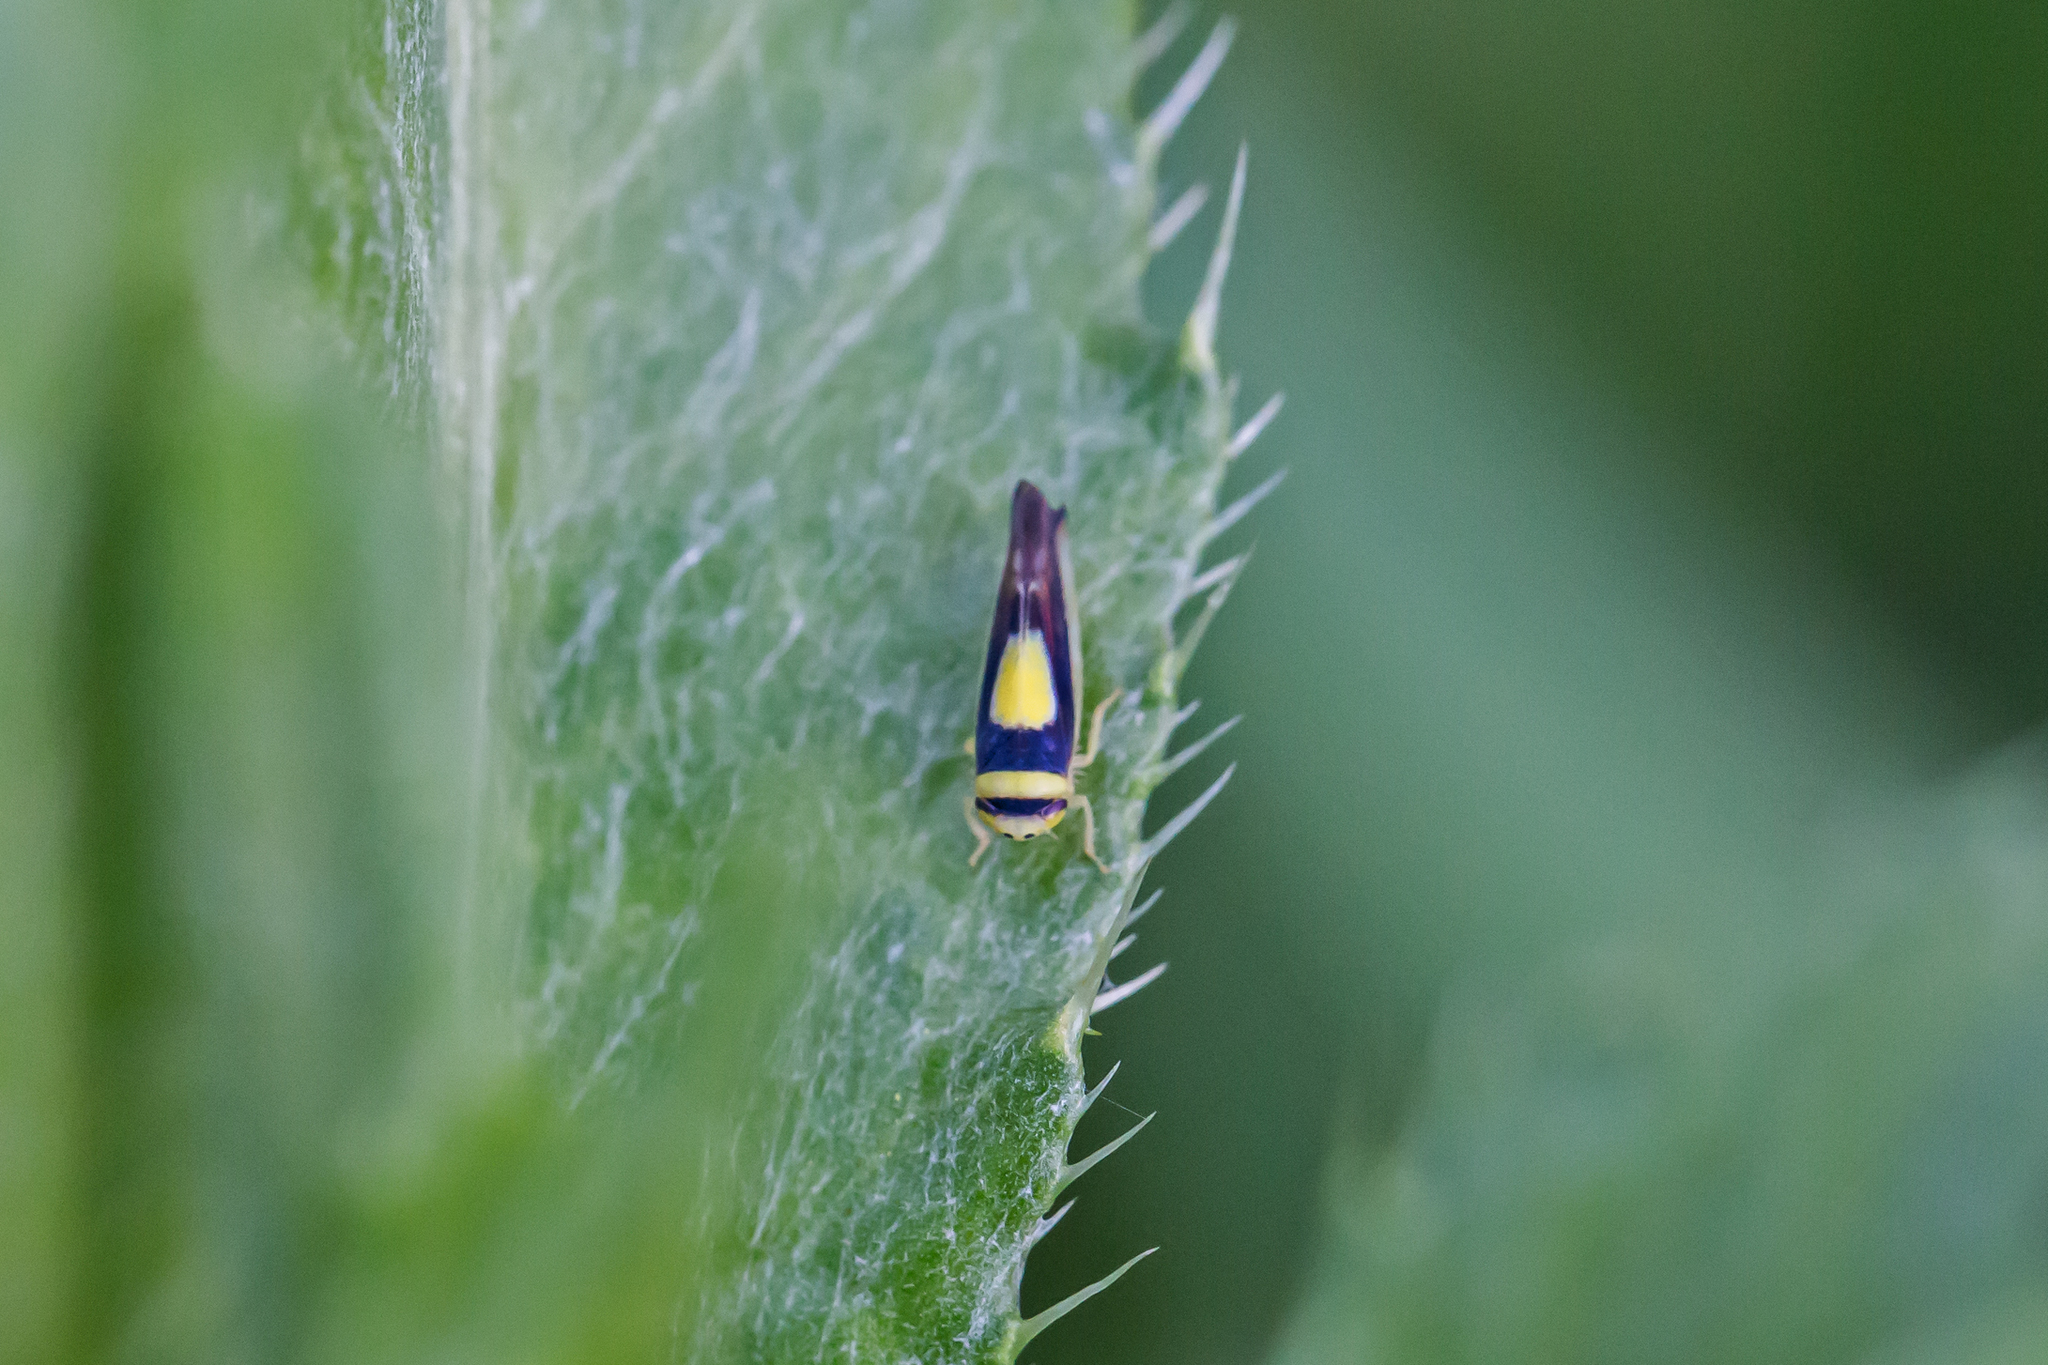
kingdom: Animalia
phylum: Arthropoda
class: Insecta
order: Hemiptera
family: Cicadellidae
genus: Colladonus
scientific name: Colladonus clitellarius
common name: The saddleback leafhopper
